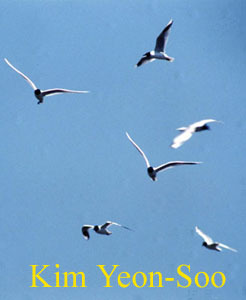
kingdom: Animalia
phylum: Chordata
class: Aves
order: Charadriiformes
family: Laridae
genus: Chroicocephalus
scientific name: Chroicocephalus saundersi
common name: Saunders's gull
